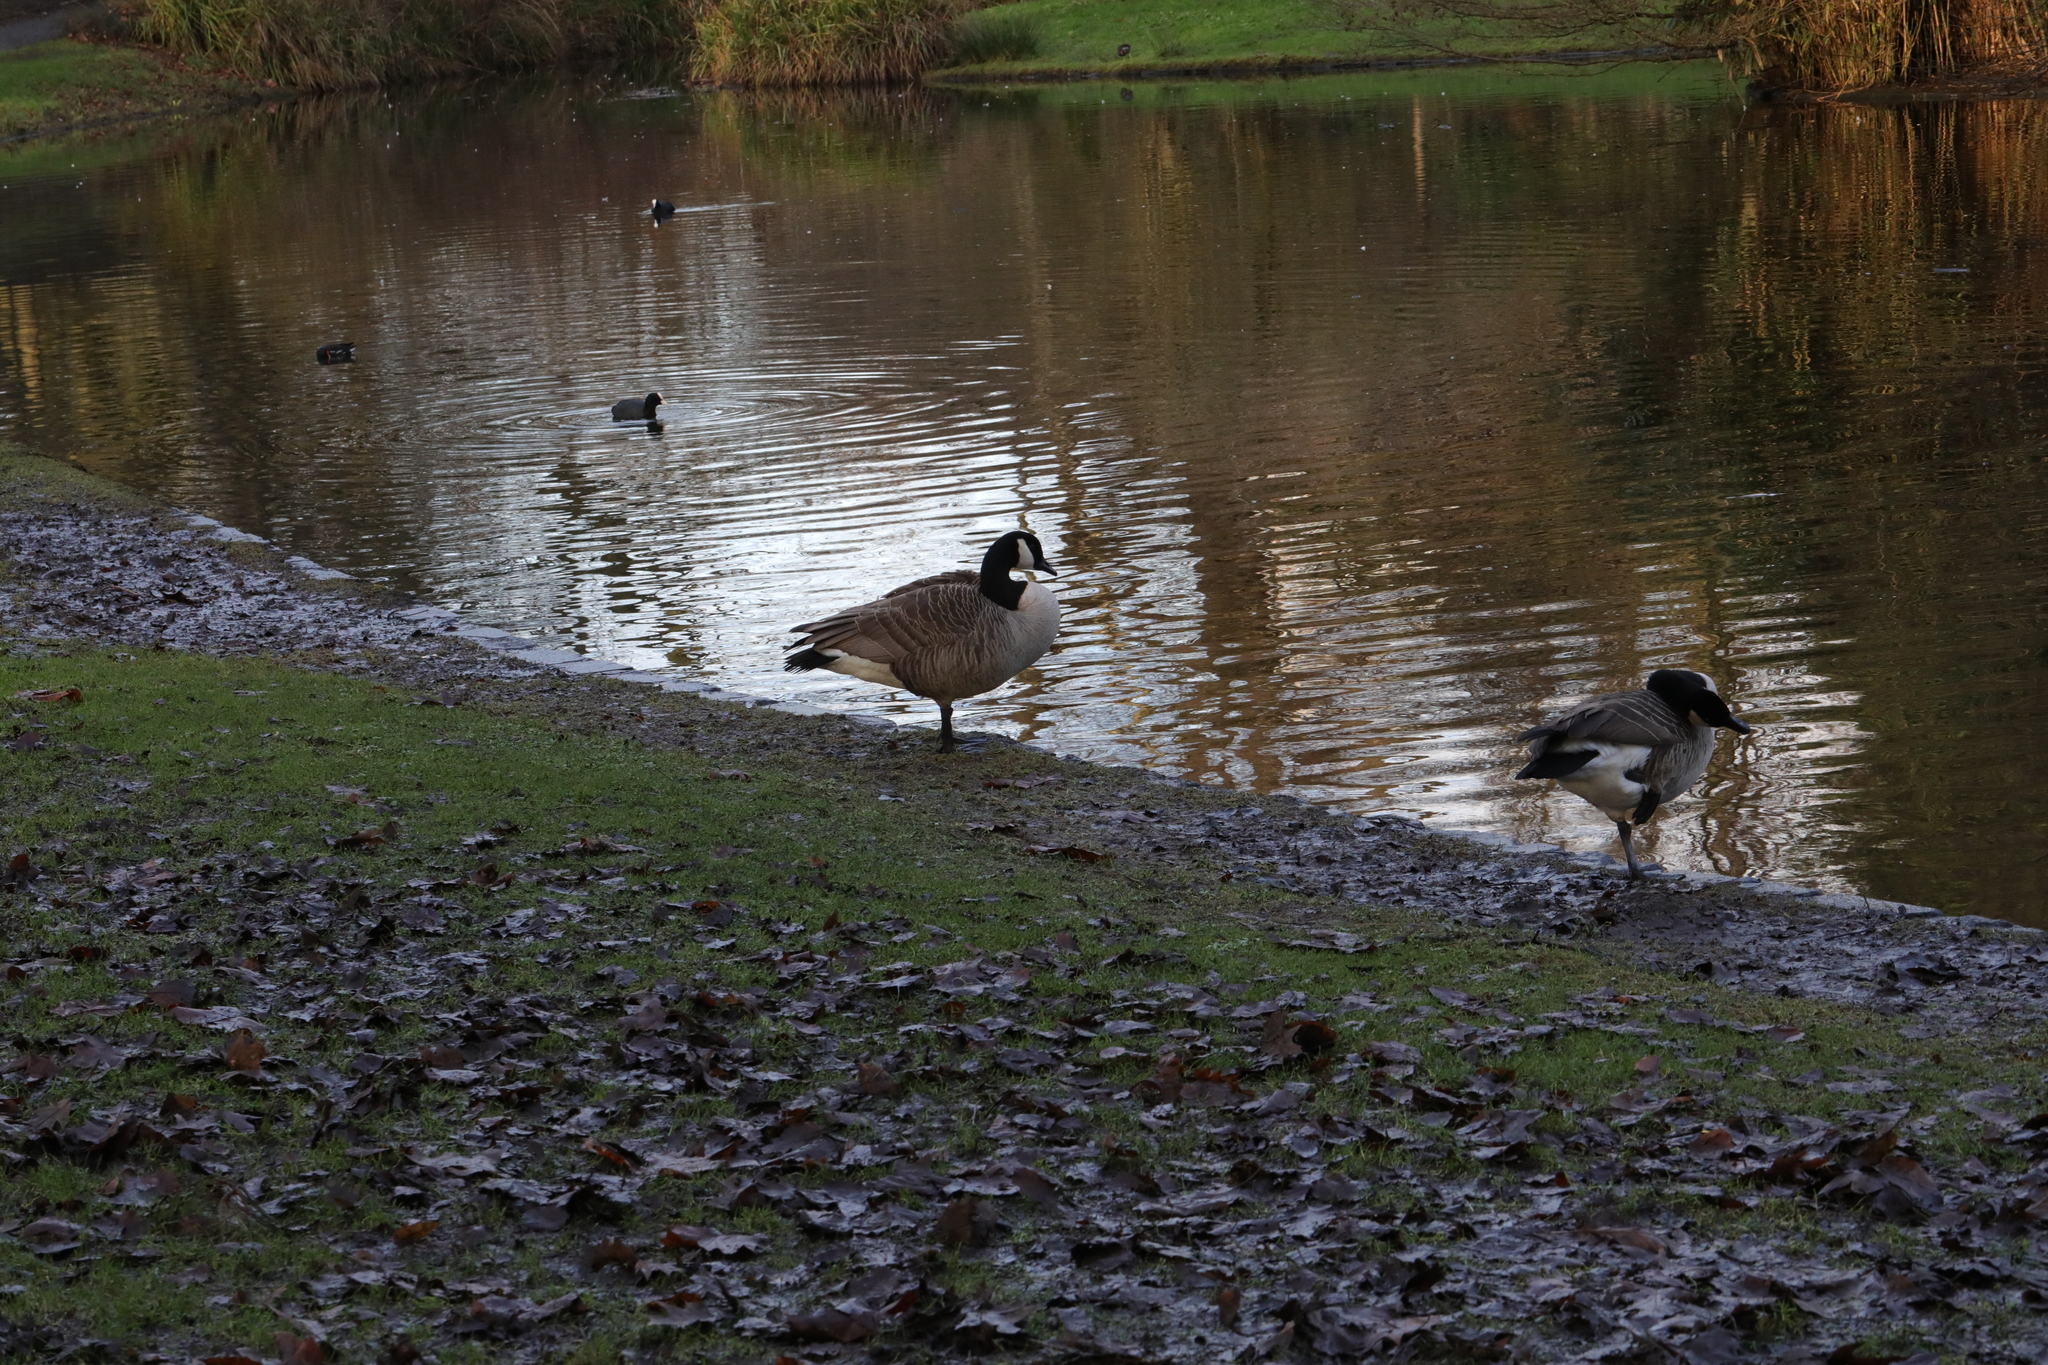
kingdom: Animalia
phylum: Chordata
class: Aves
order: Anseriformes
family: Anatidae
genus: Branta
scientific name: Branta canadensis
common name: Canada goose
